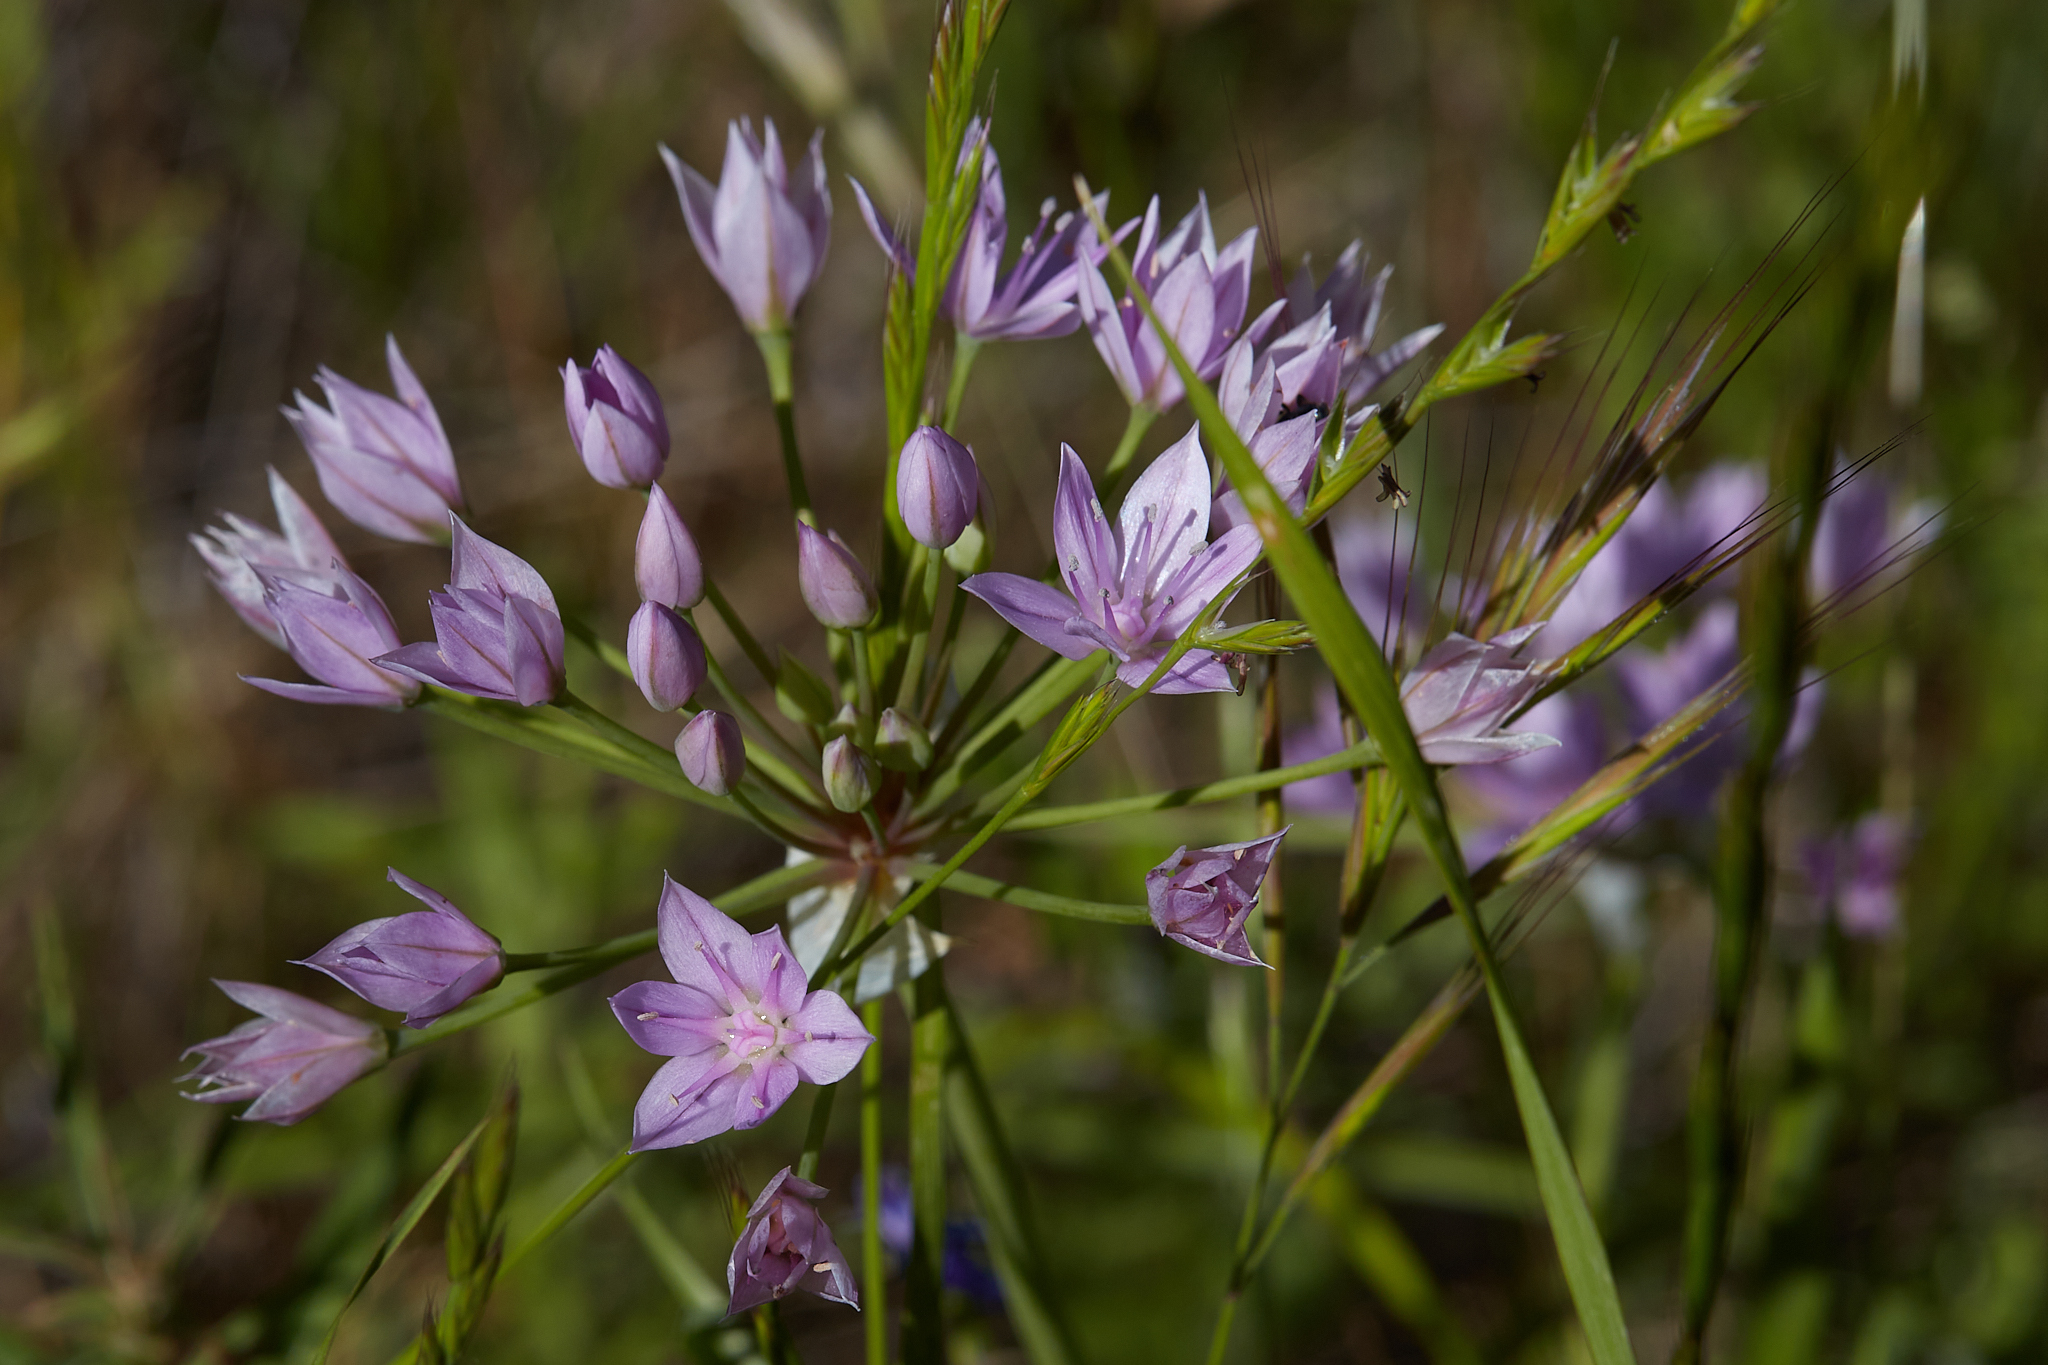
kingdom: Plantae
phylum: Tracheophyta
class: Liliopsida
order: Asparagales
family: Amaryllidaceae
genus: Allium
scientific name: Allium unifolium
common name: American garlic
